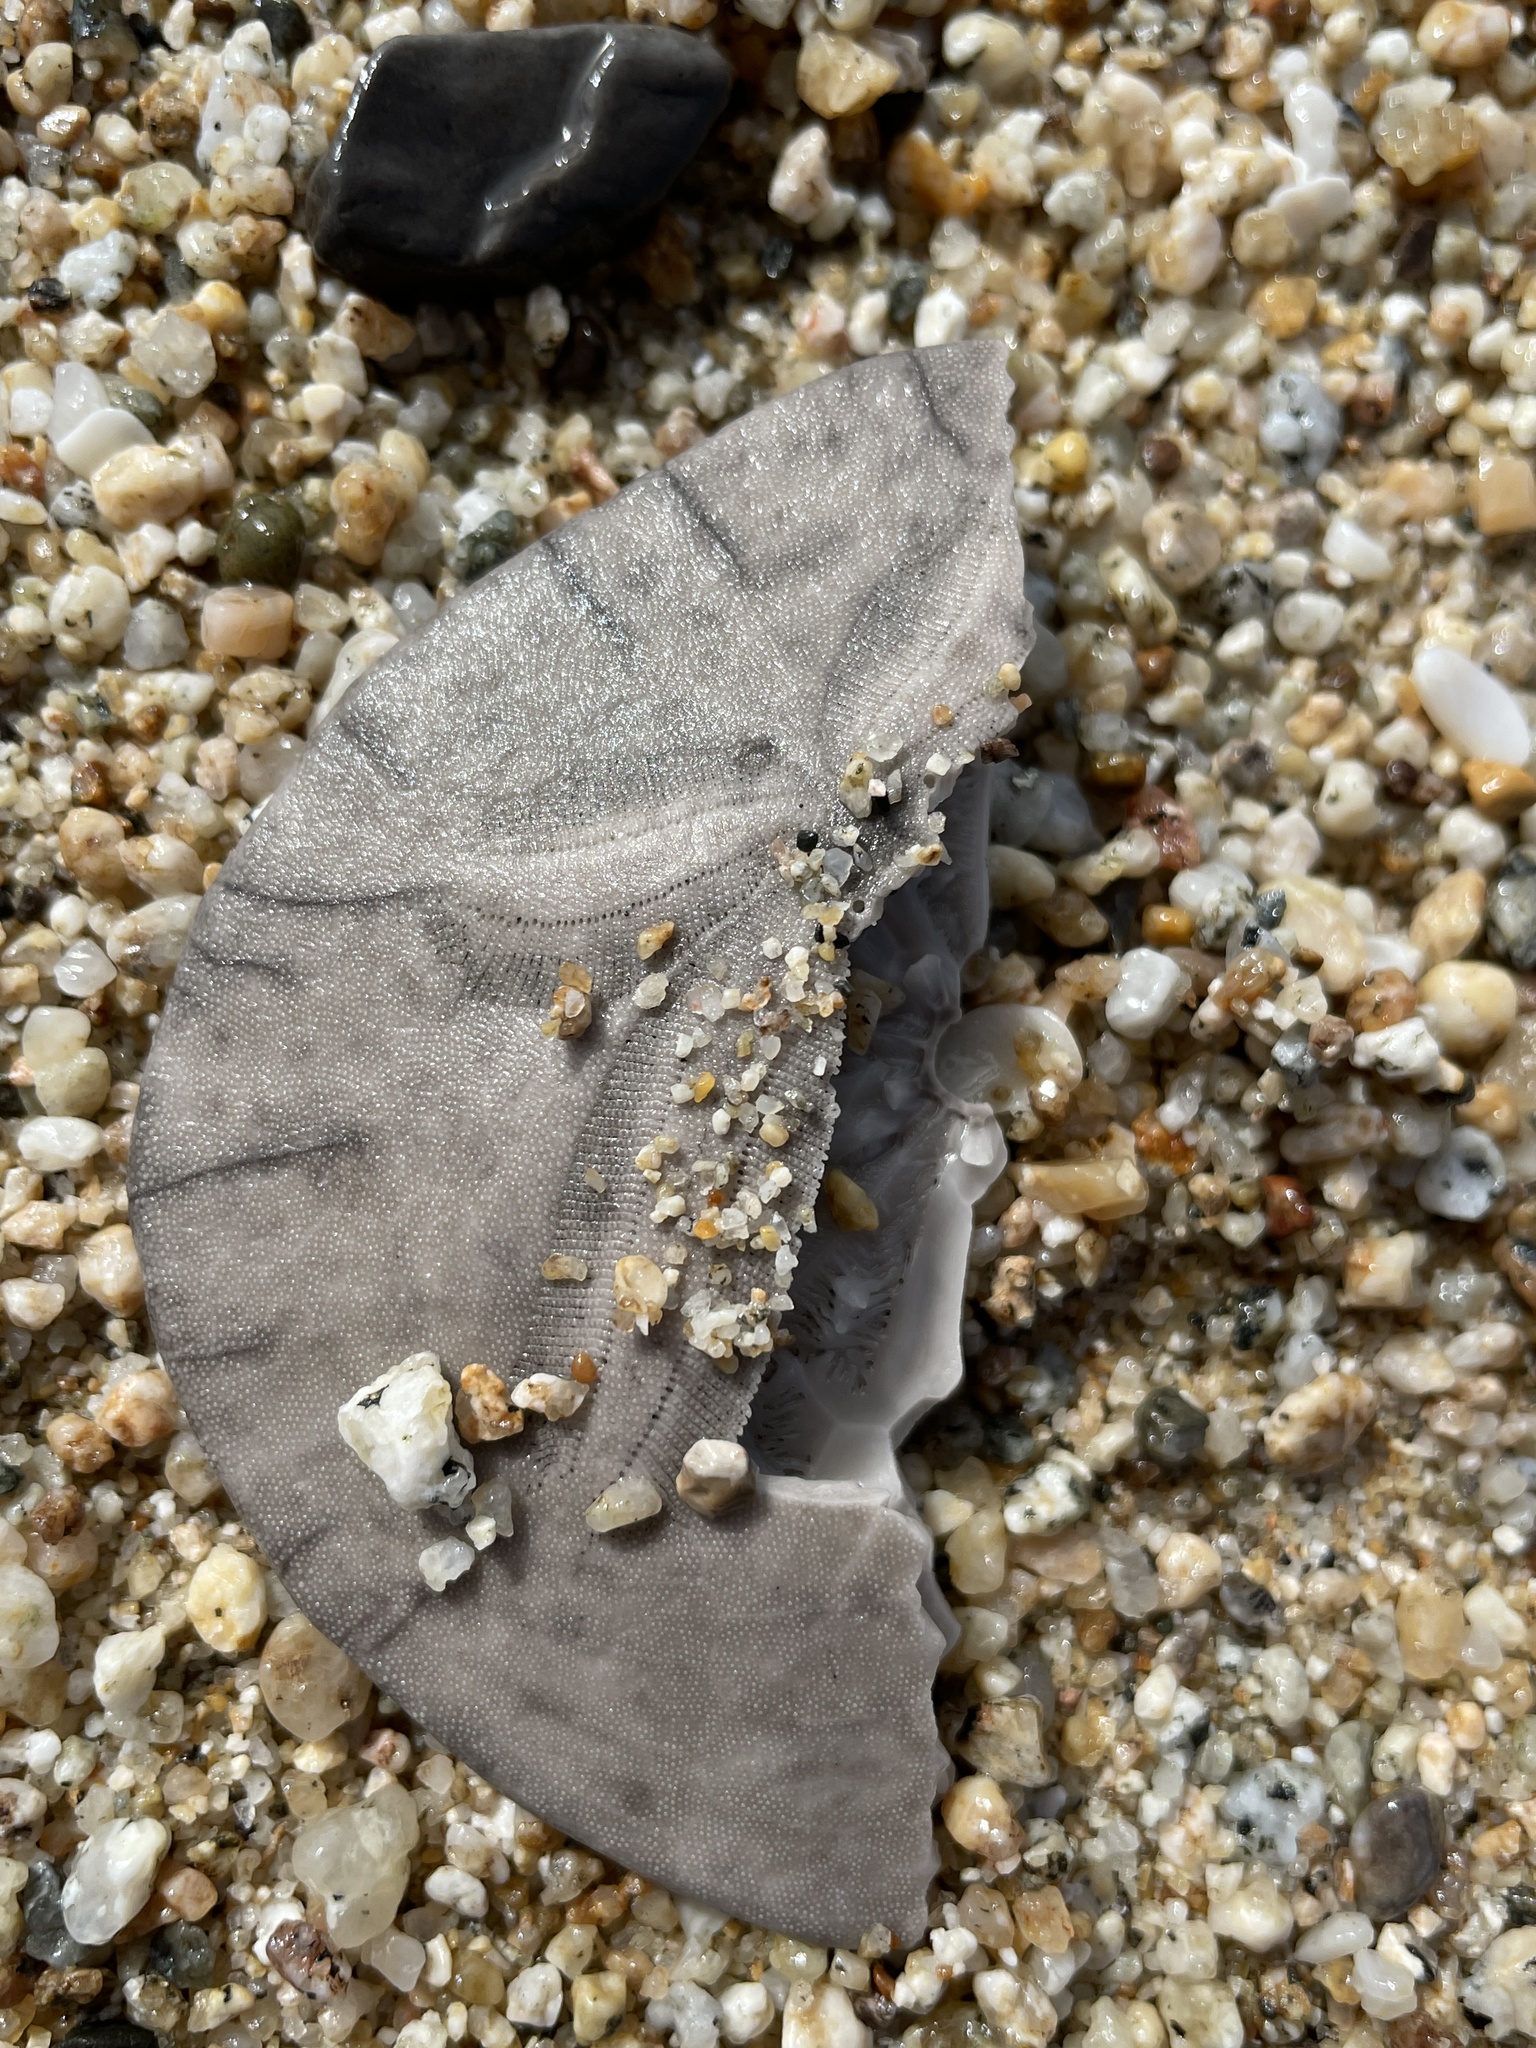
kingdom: Animalia
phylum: Echinodermata
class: Echinoidea
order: Echinolampadacea
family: Dendrasteridae
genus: Dendraster
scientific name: Dendraster excentricus
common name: Eccentric sand dollar sea urchin
